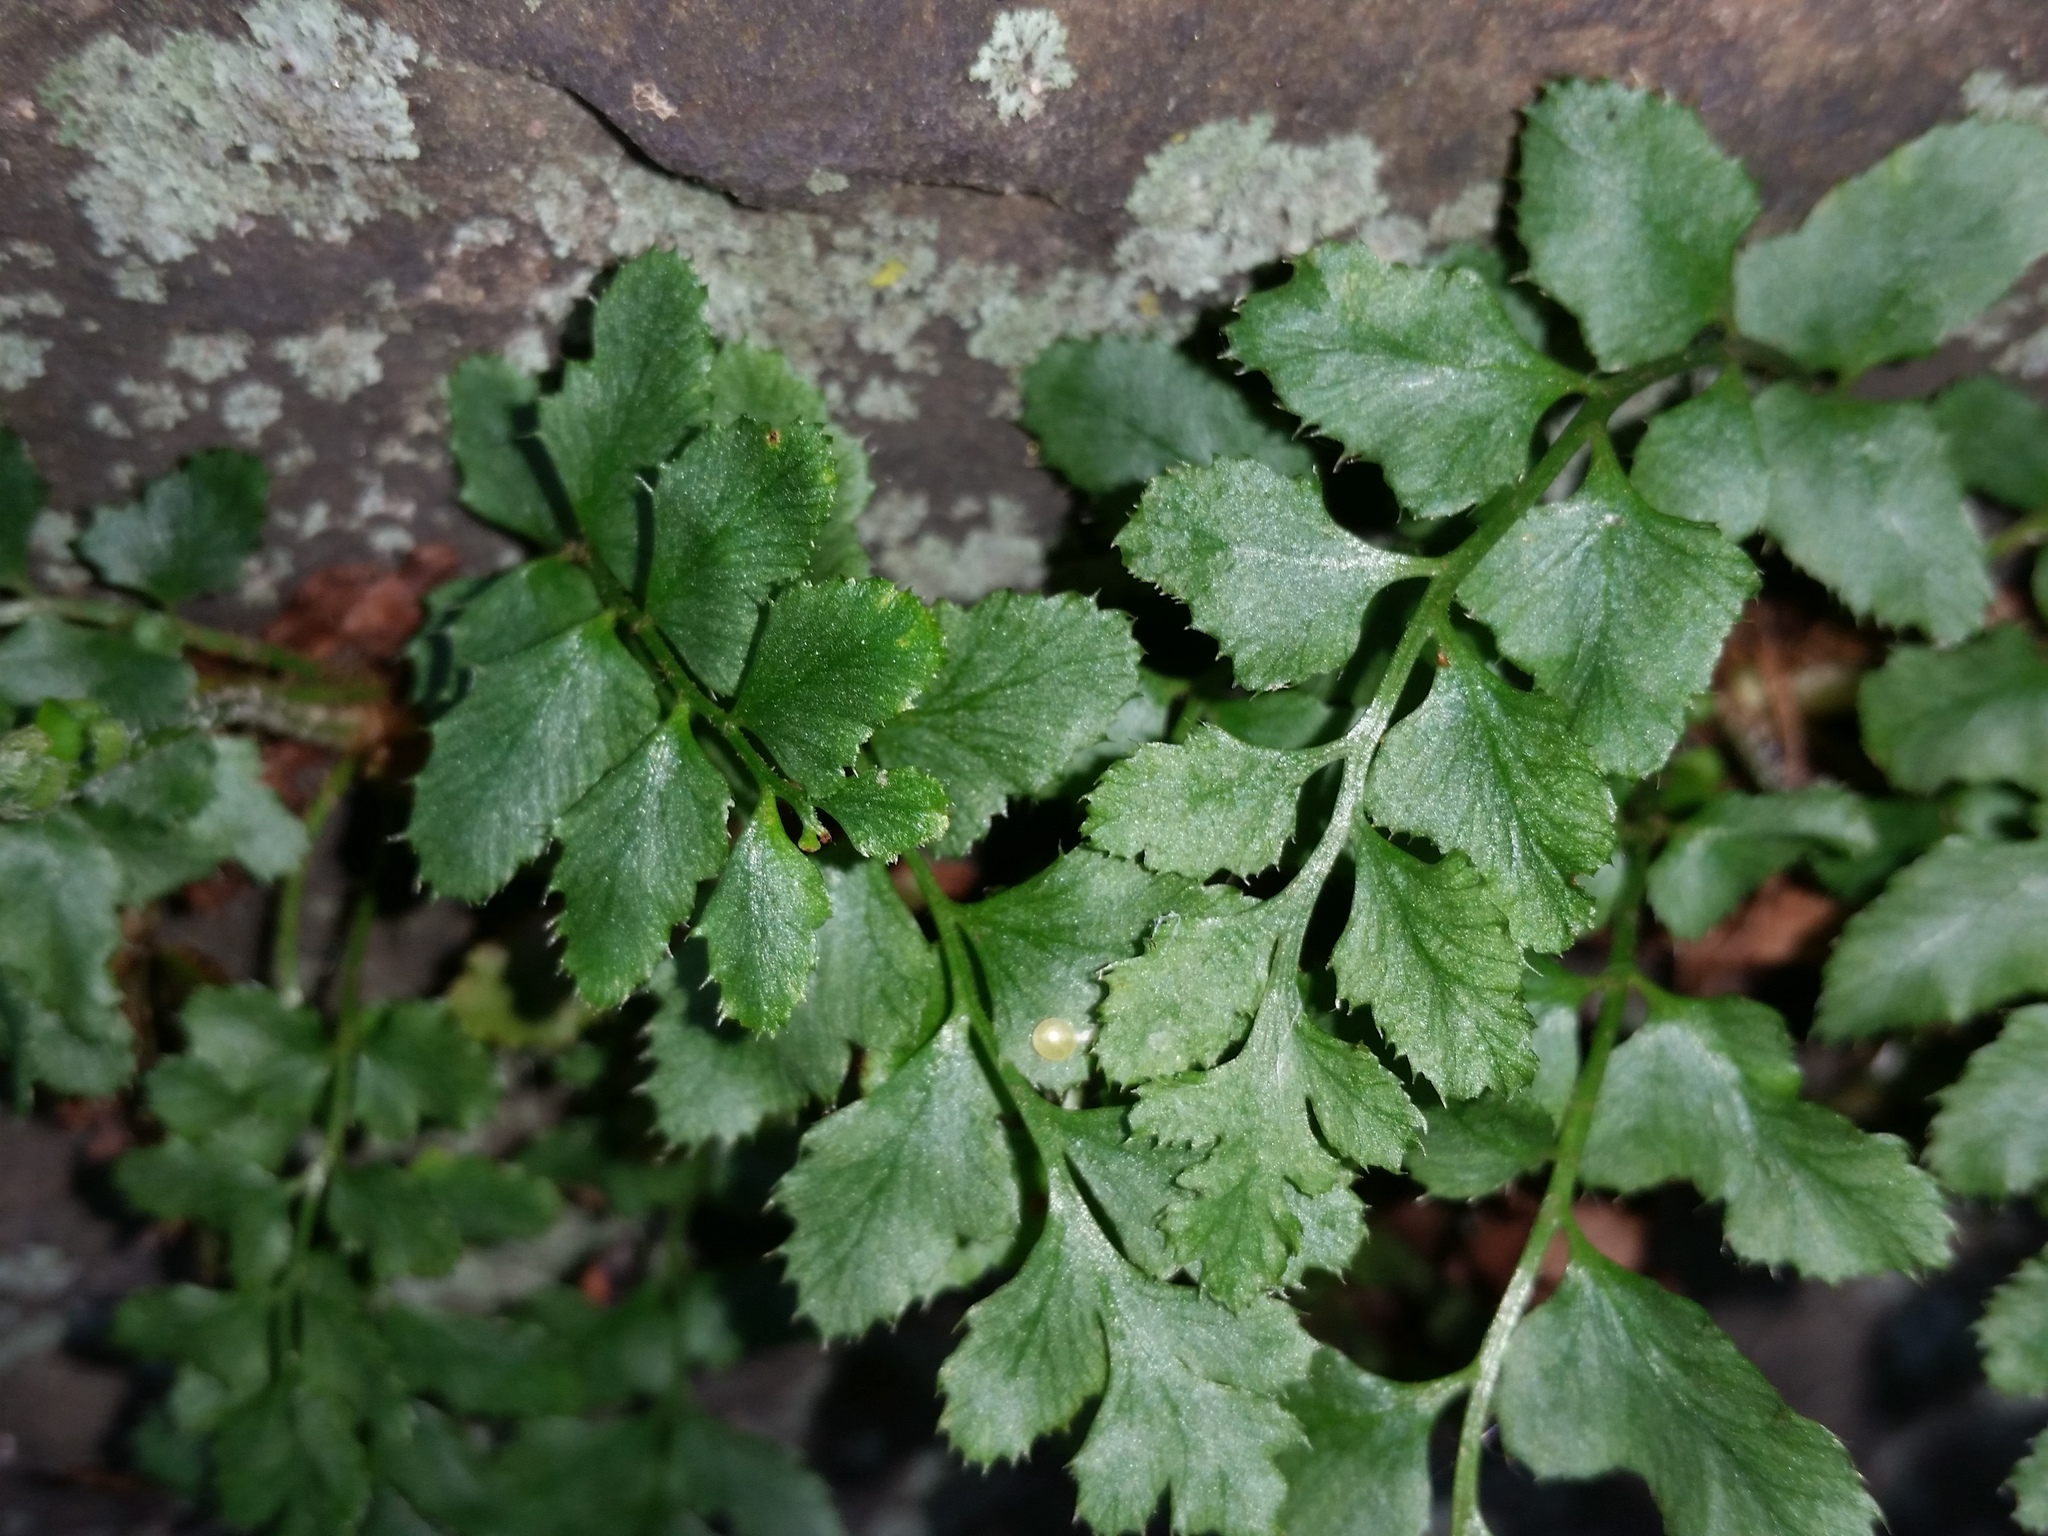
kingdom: Plantae
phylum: Tracheophyta
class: Polypodiopsida
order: Polypodiales
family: Dryopteridaceae
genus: Polystichum
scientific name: Polystichum acrostichoides
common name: Christmas fern
